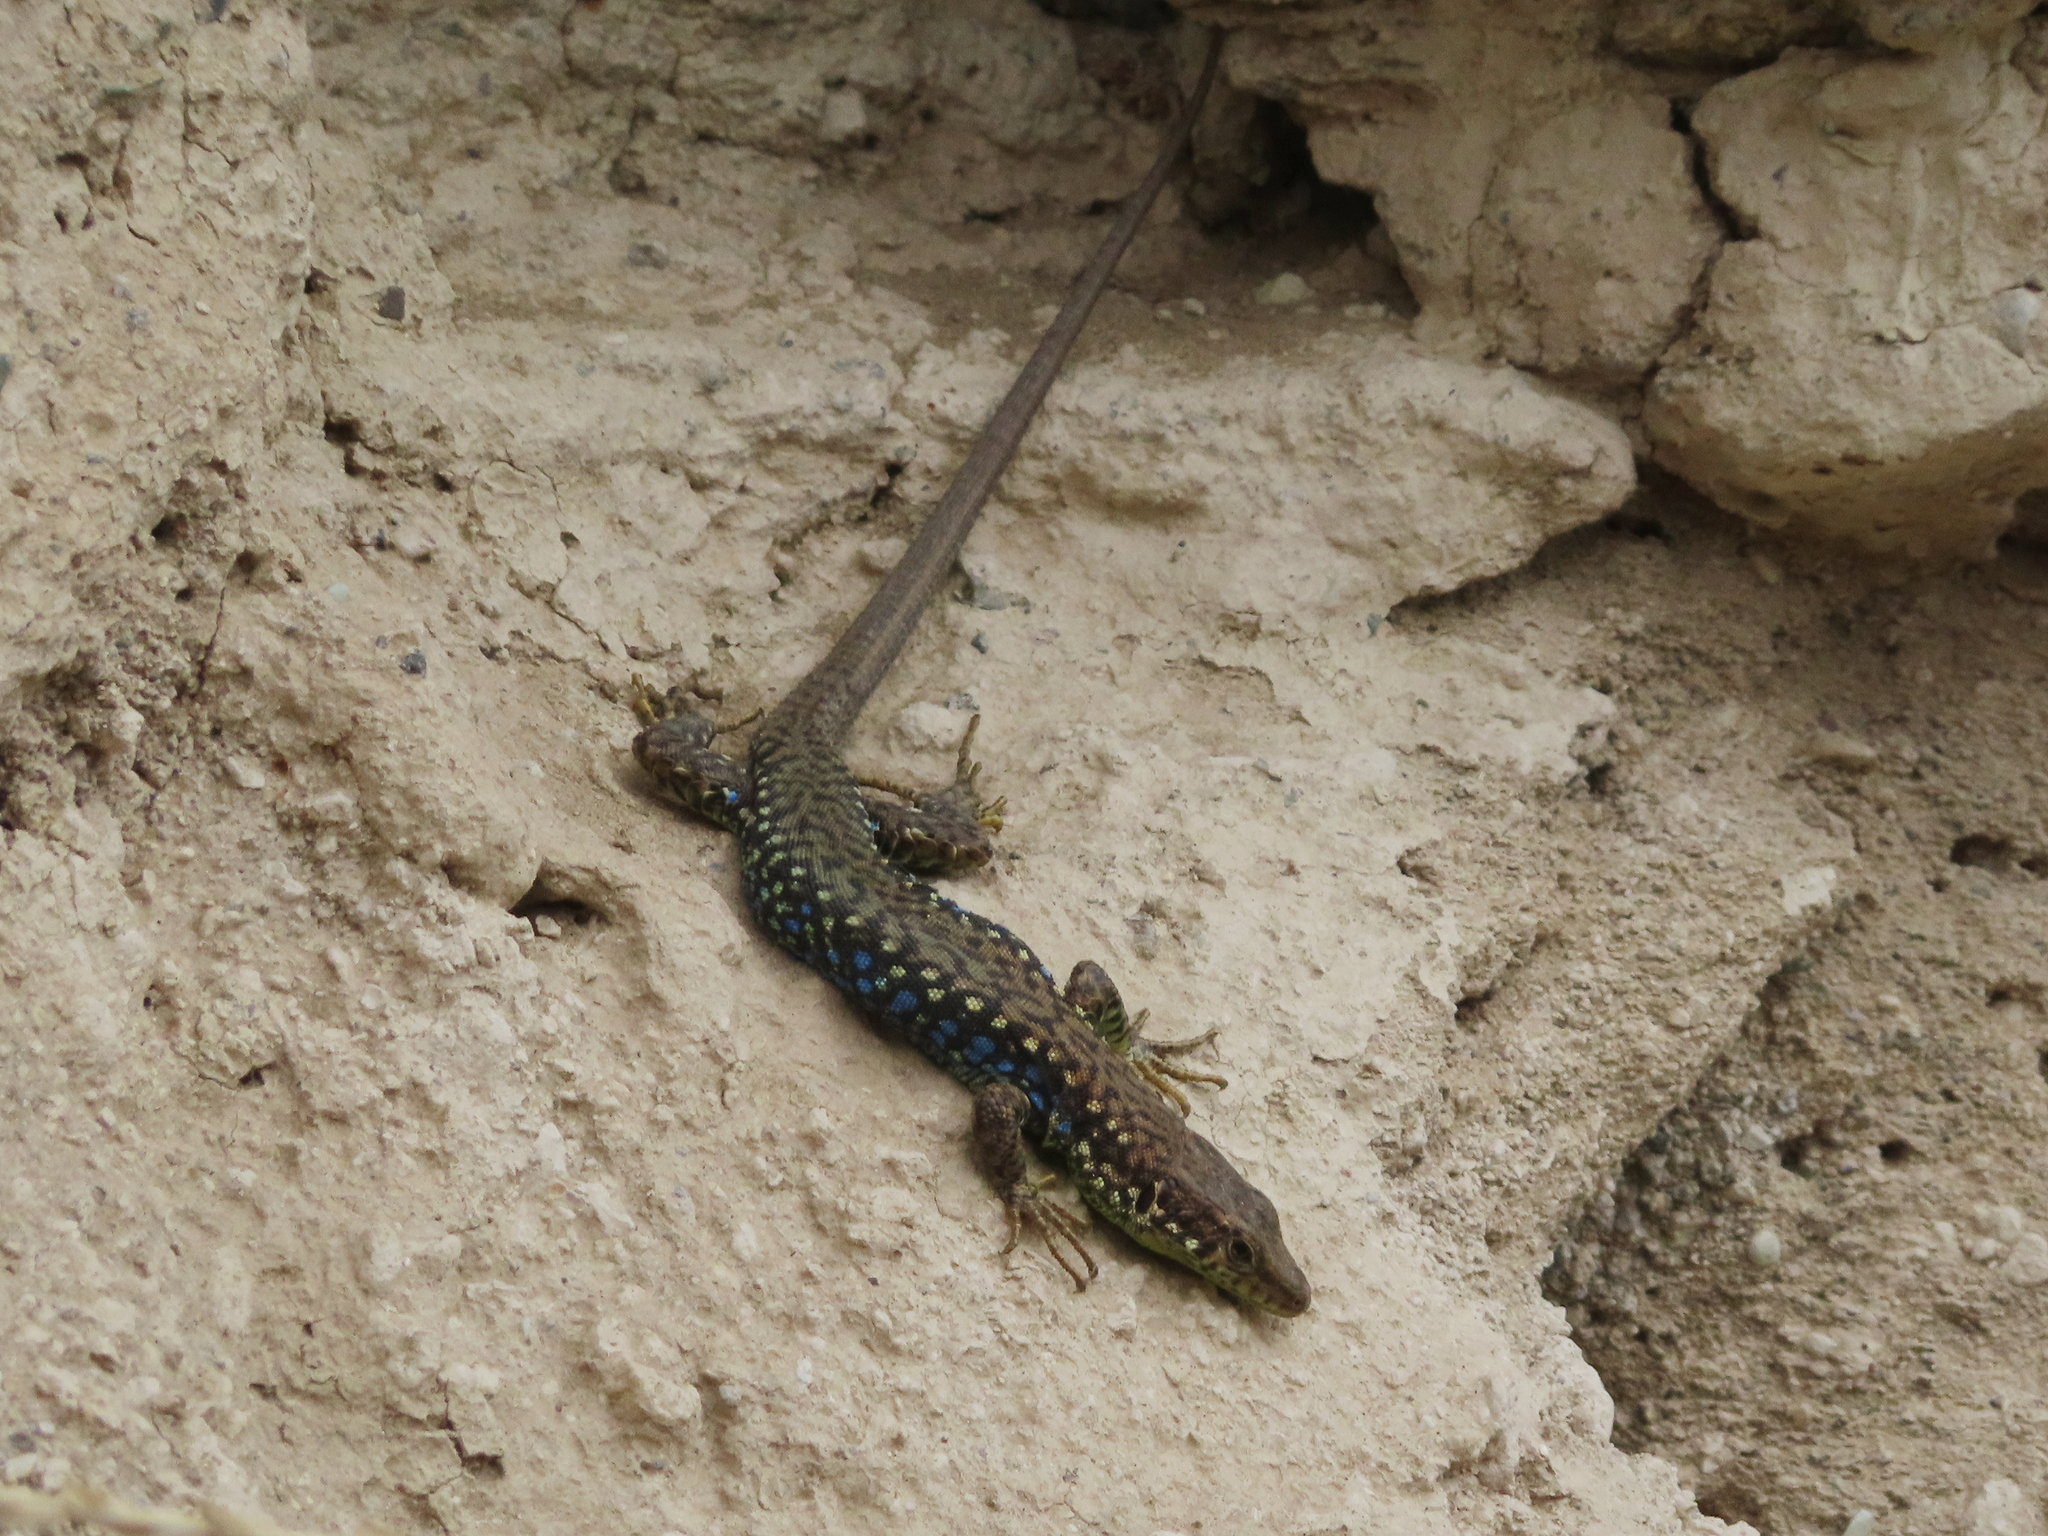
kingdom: Animalia
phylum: Chordata
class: Squamata
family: Lacertidae
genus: Darevskia
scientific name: Darevskia
